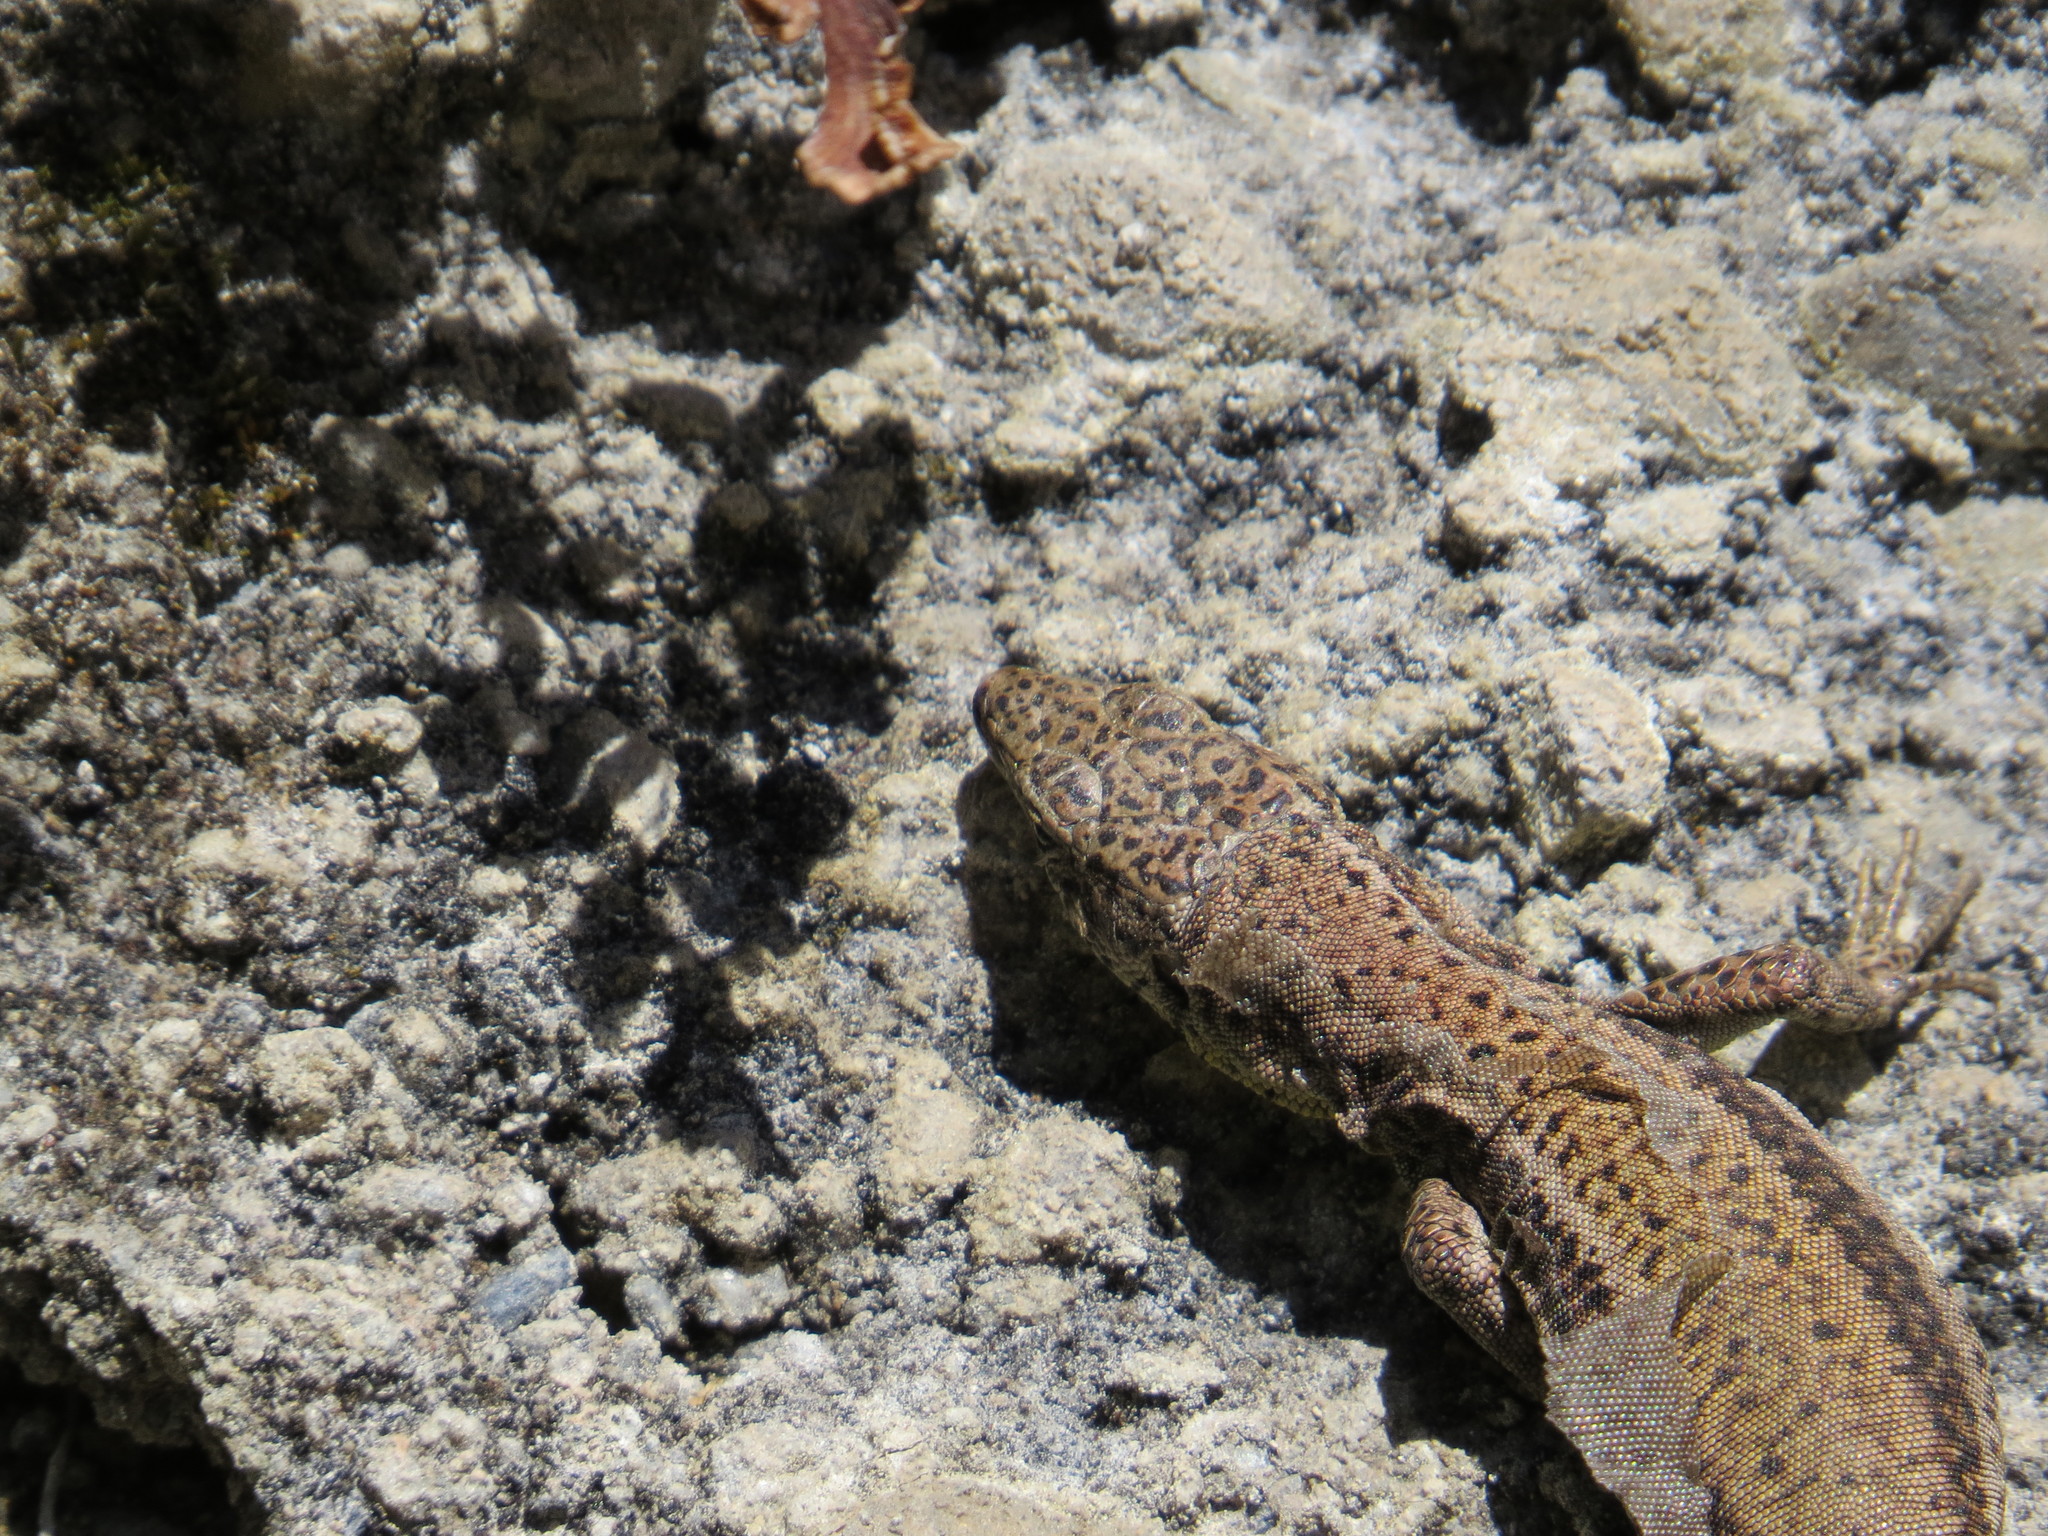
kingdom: Animalia
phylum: Chordata
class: Squamata
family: Lacertidae
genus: Podarcis
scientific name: Podarcis vaucheri
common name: Vaucher's wall lizard
